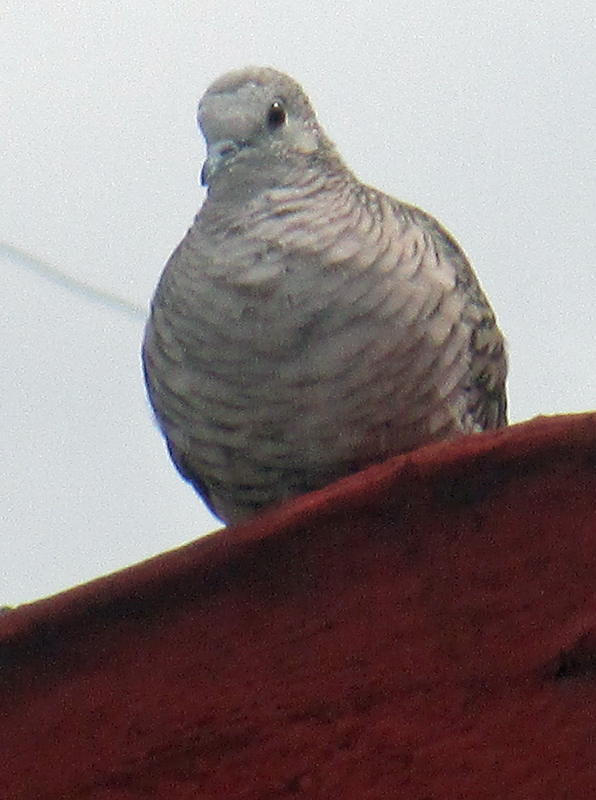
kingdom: Animalia
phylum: Chordata
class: Aves
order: Columbiformes
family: Columbidae
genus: Columbina
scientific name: Columbina inca
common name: Inca dove
